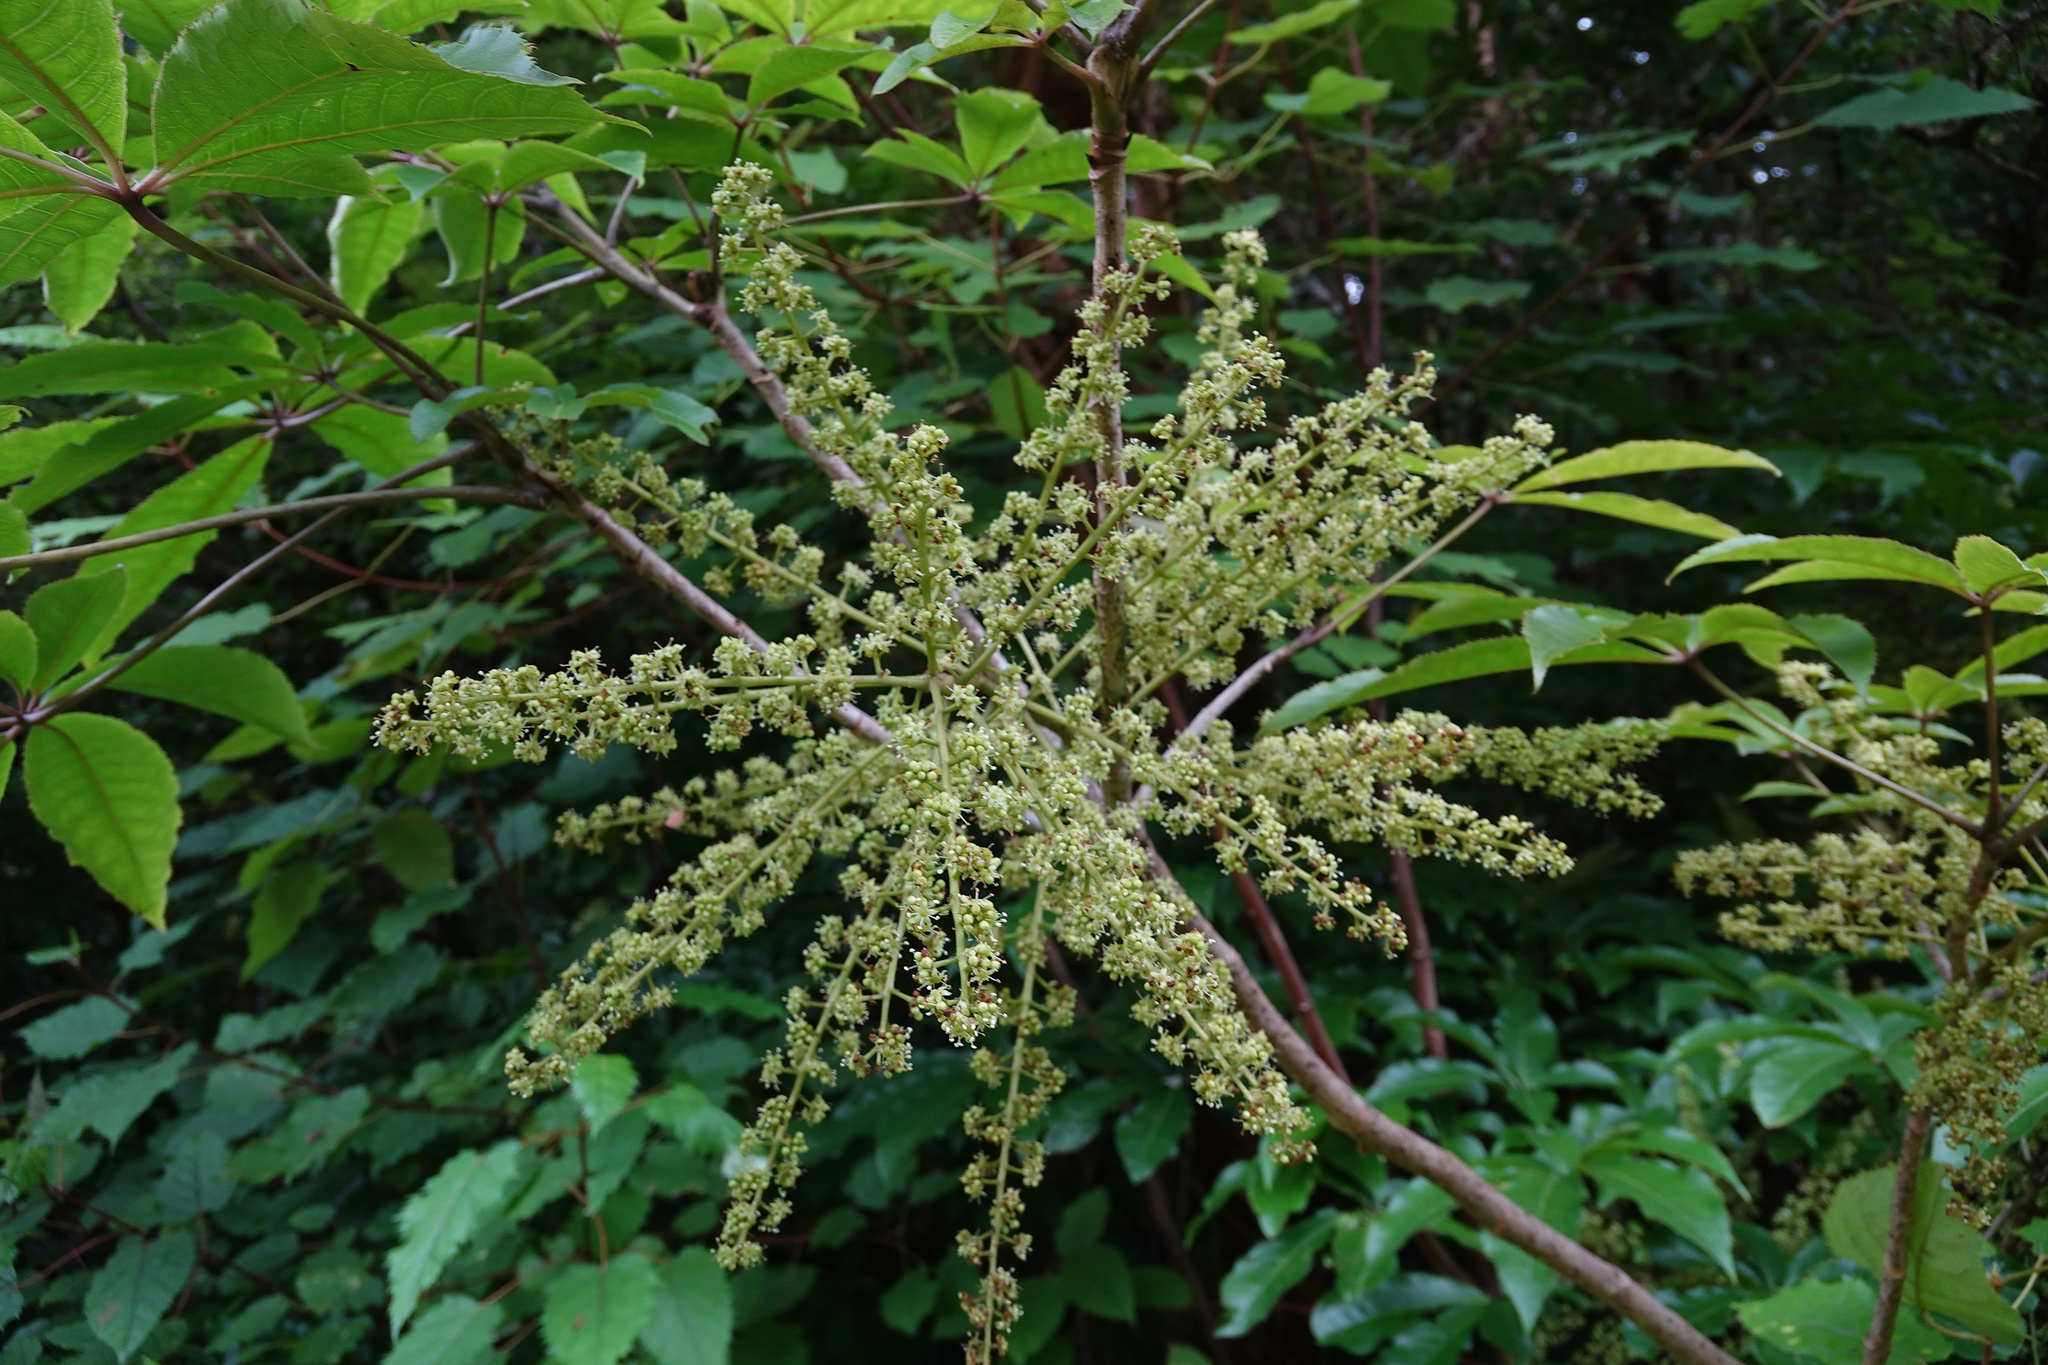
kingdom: Plantae
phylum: Tracheophyta
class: Magnoliopsida
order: Apiales
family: Araliaceae
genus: Schefflera
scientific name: Schefflera digitata
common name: Pate
